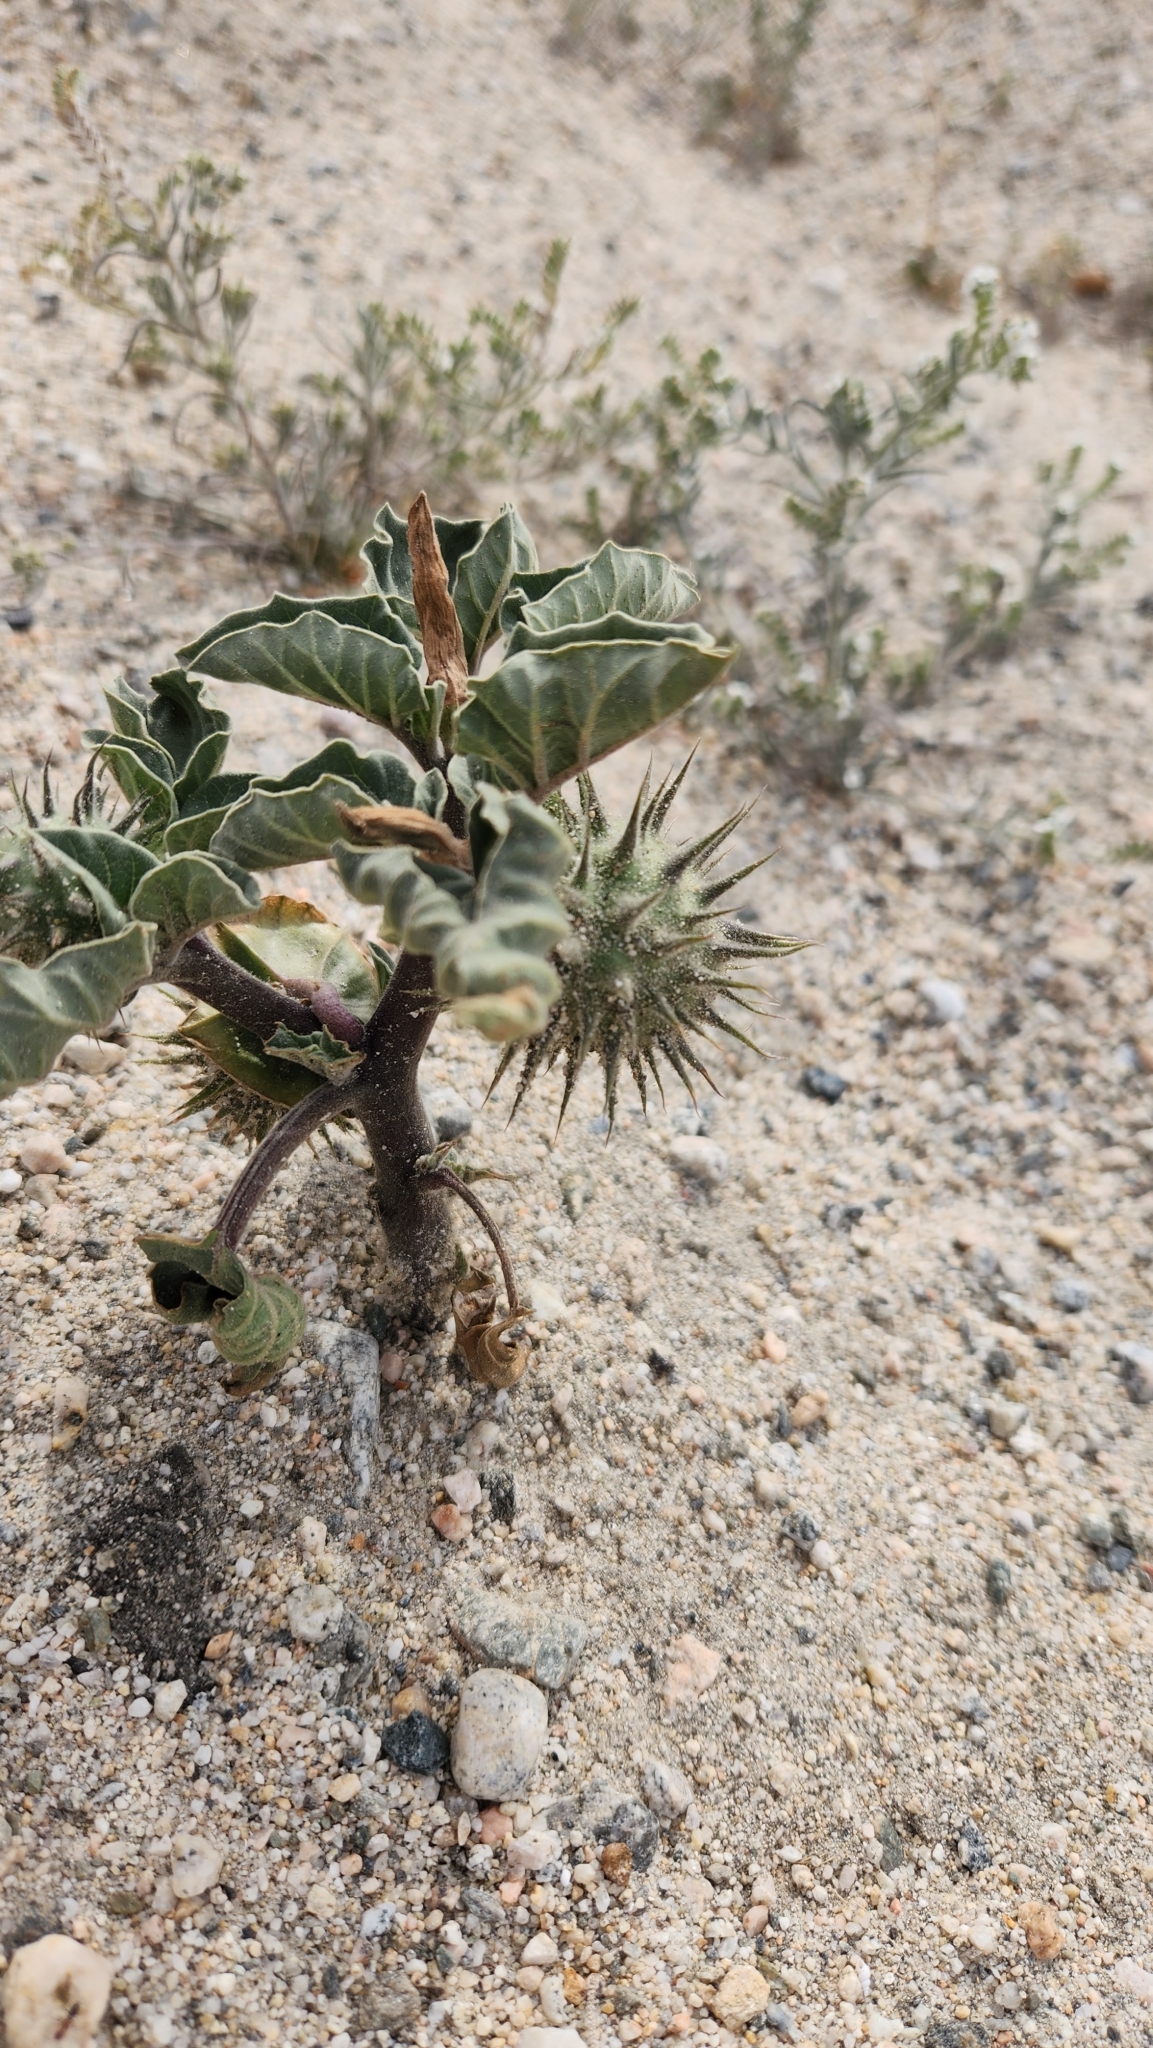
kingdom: Plantae
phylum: Tracheophyta
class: Magnoliopsida
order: Solanales
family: Solanaceae
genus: Datura
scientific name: Datura discolor
